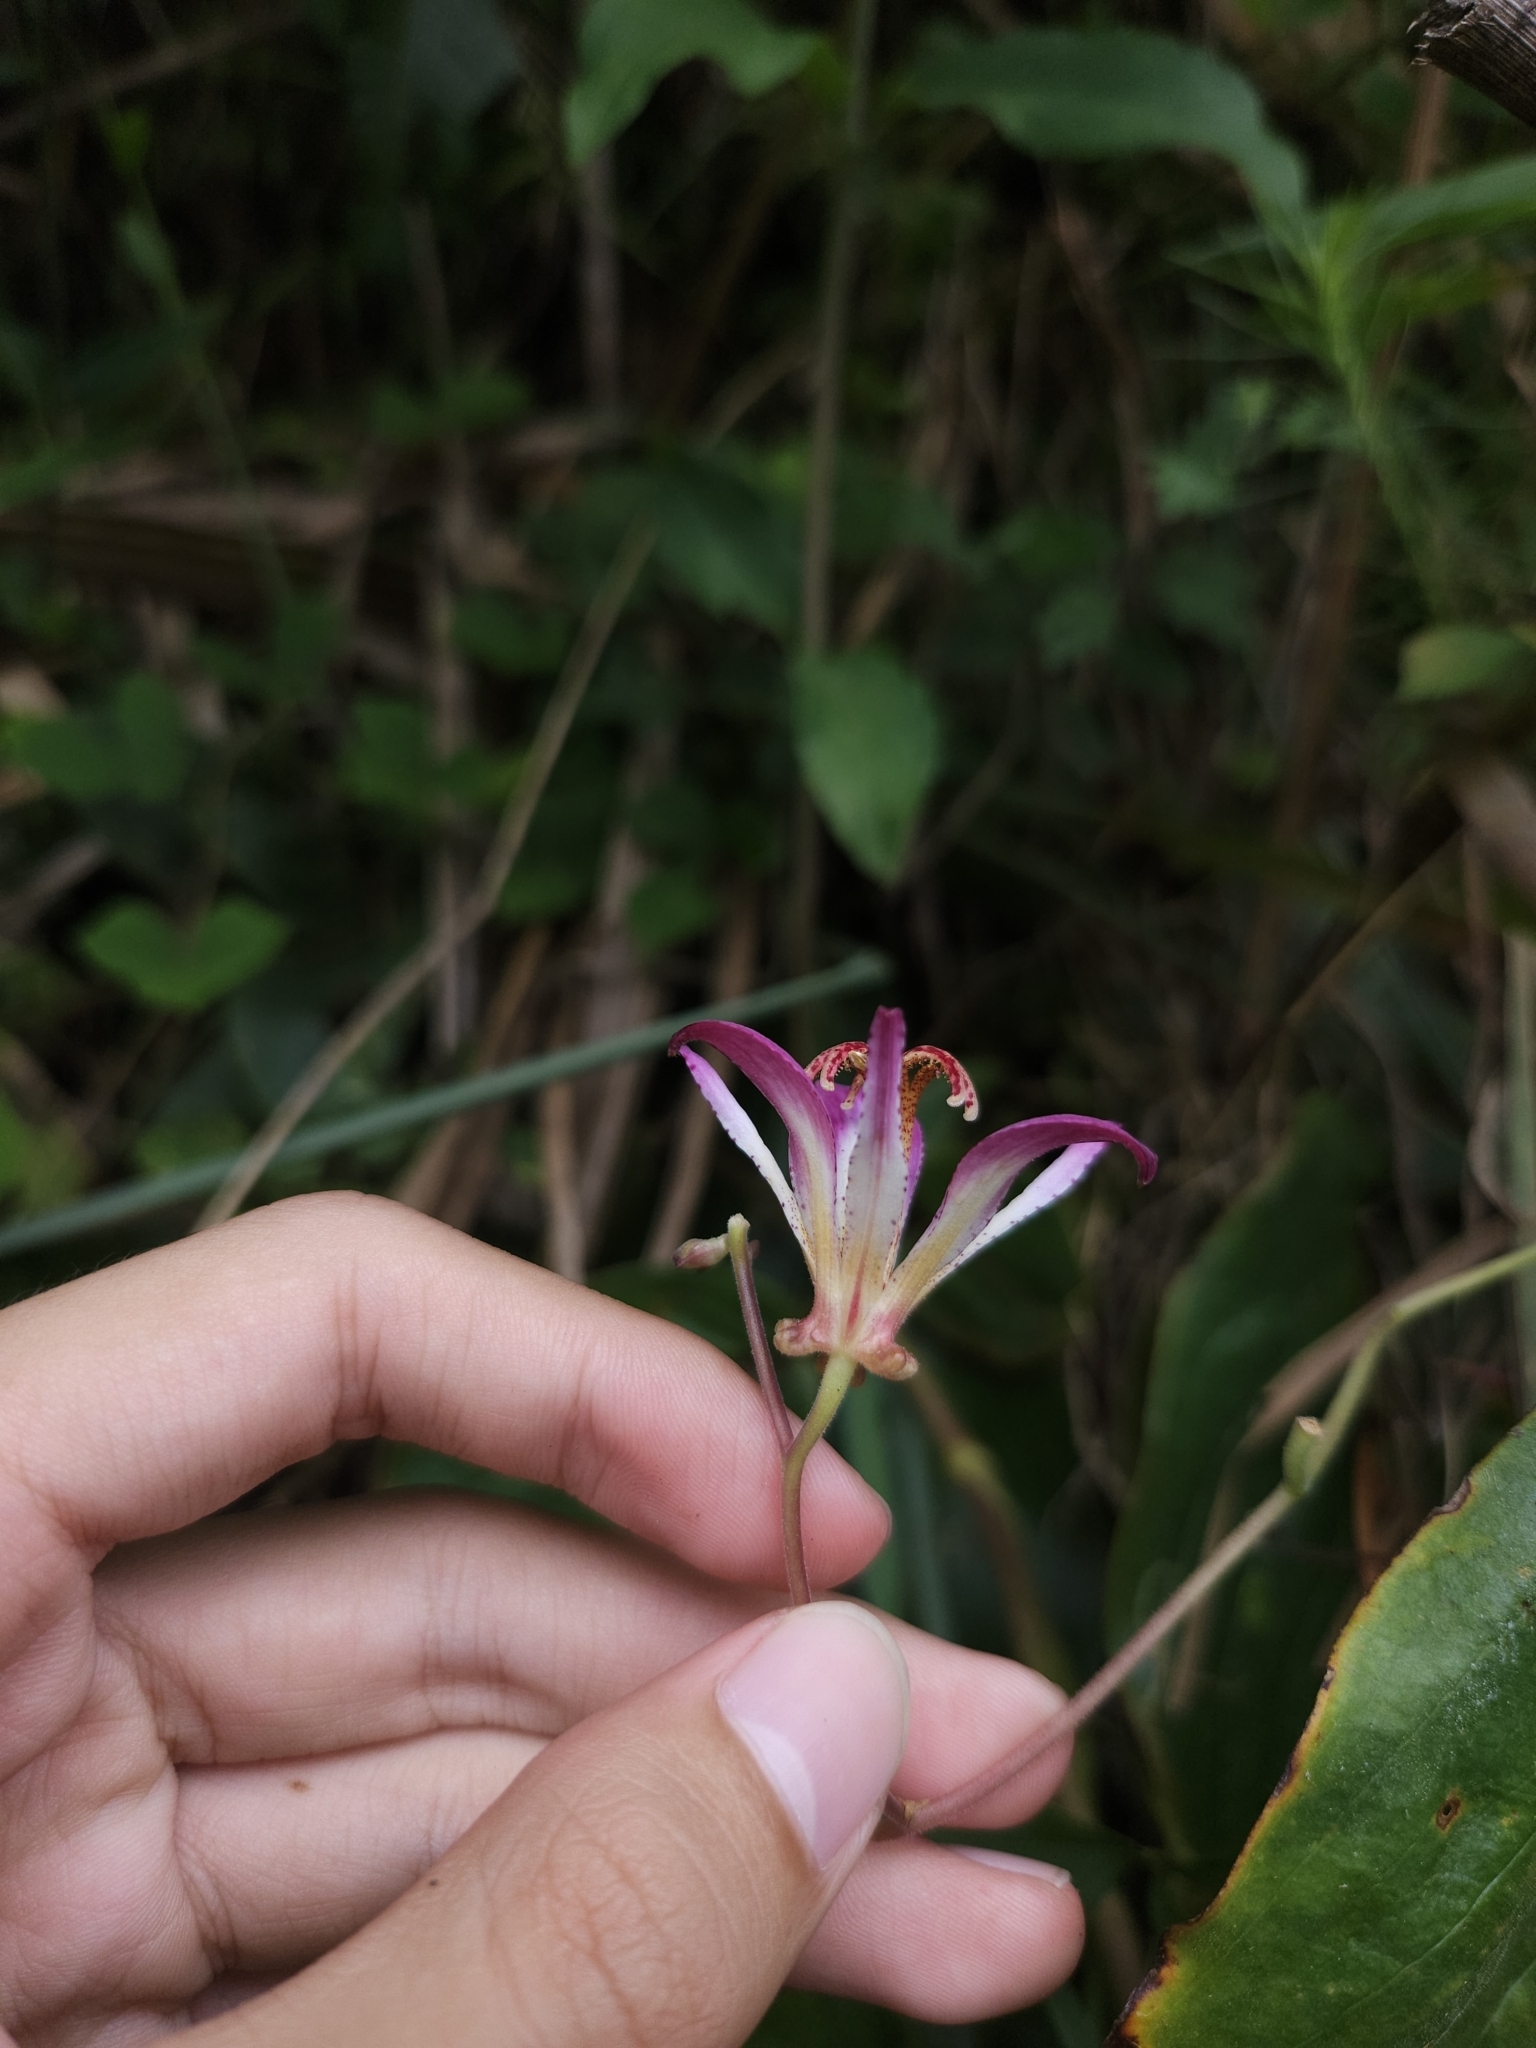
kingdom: Plantae
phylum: Tracheophyta
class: Liliopsida
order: Liliales
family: Liliaceae
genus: Tricyrtis
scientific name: Tricyrtis lasiocarpa
